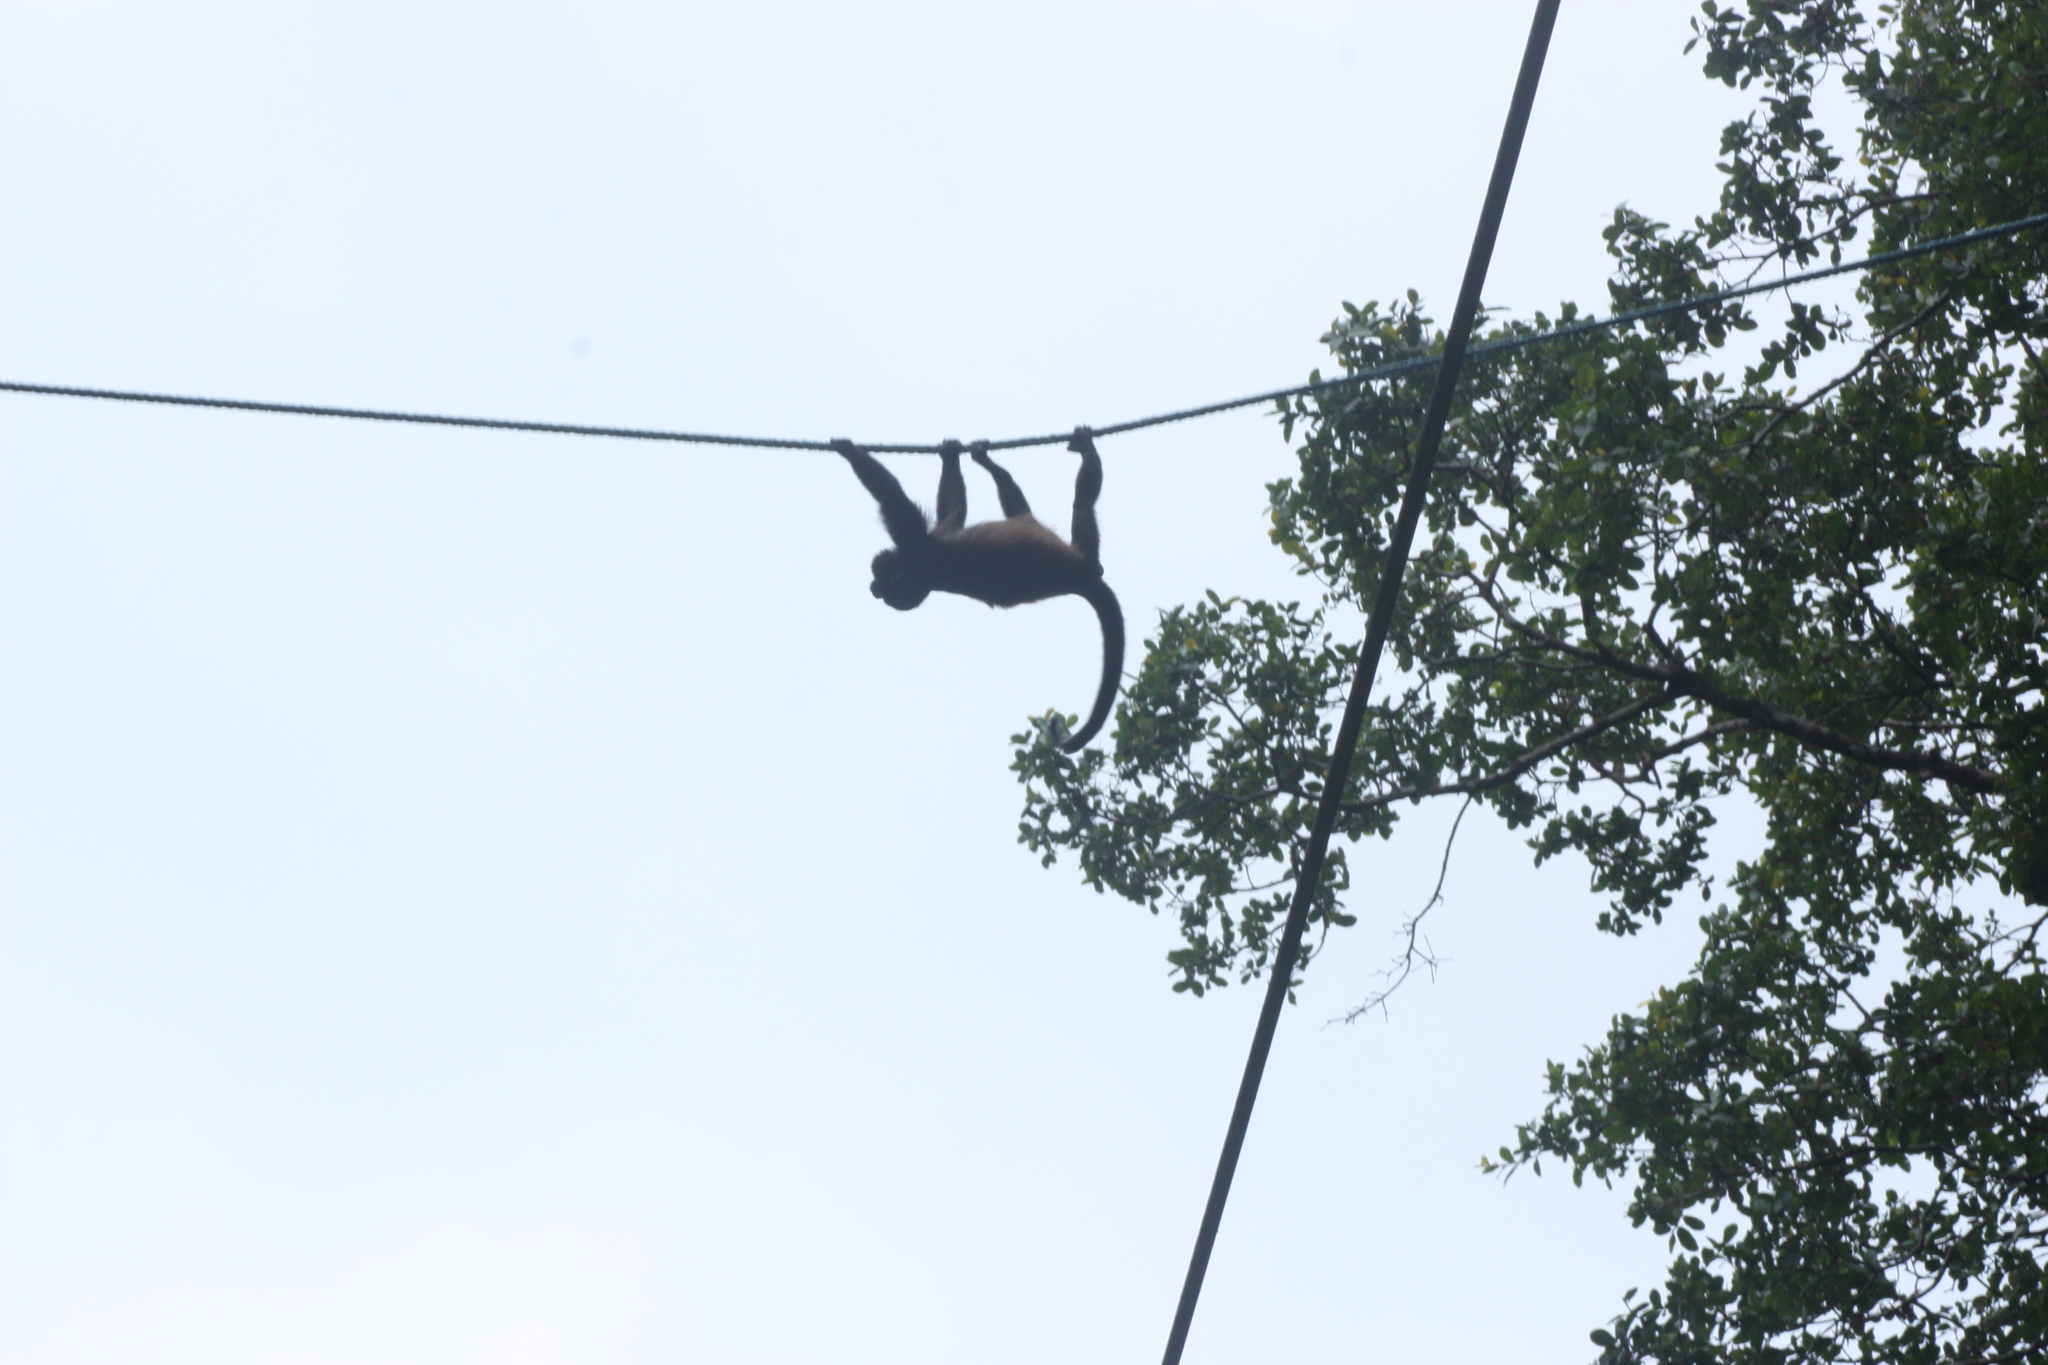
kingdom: Animalia
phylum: Chordata
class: Mammalia
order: Primates
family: Atelidae
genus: Alouatta
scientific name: Alouatta palliata
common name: Mantled howler
